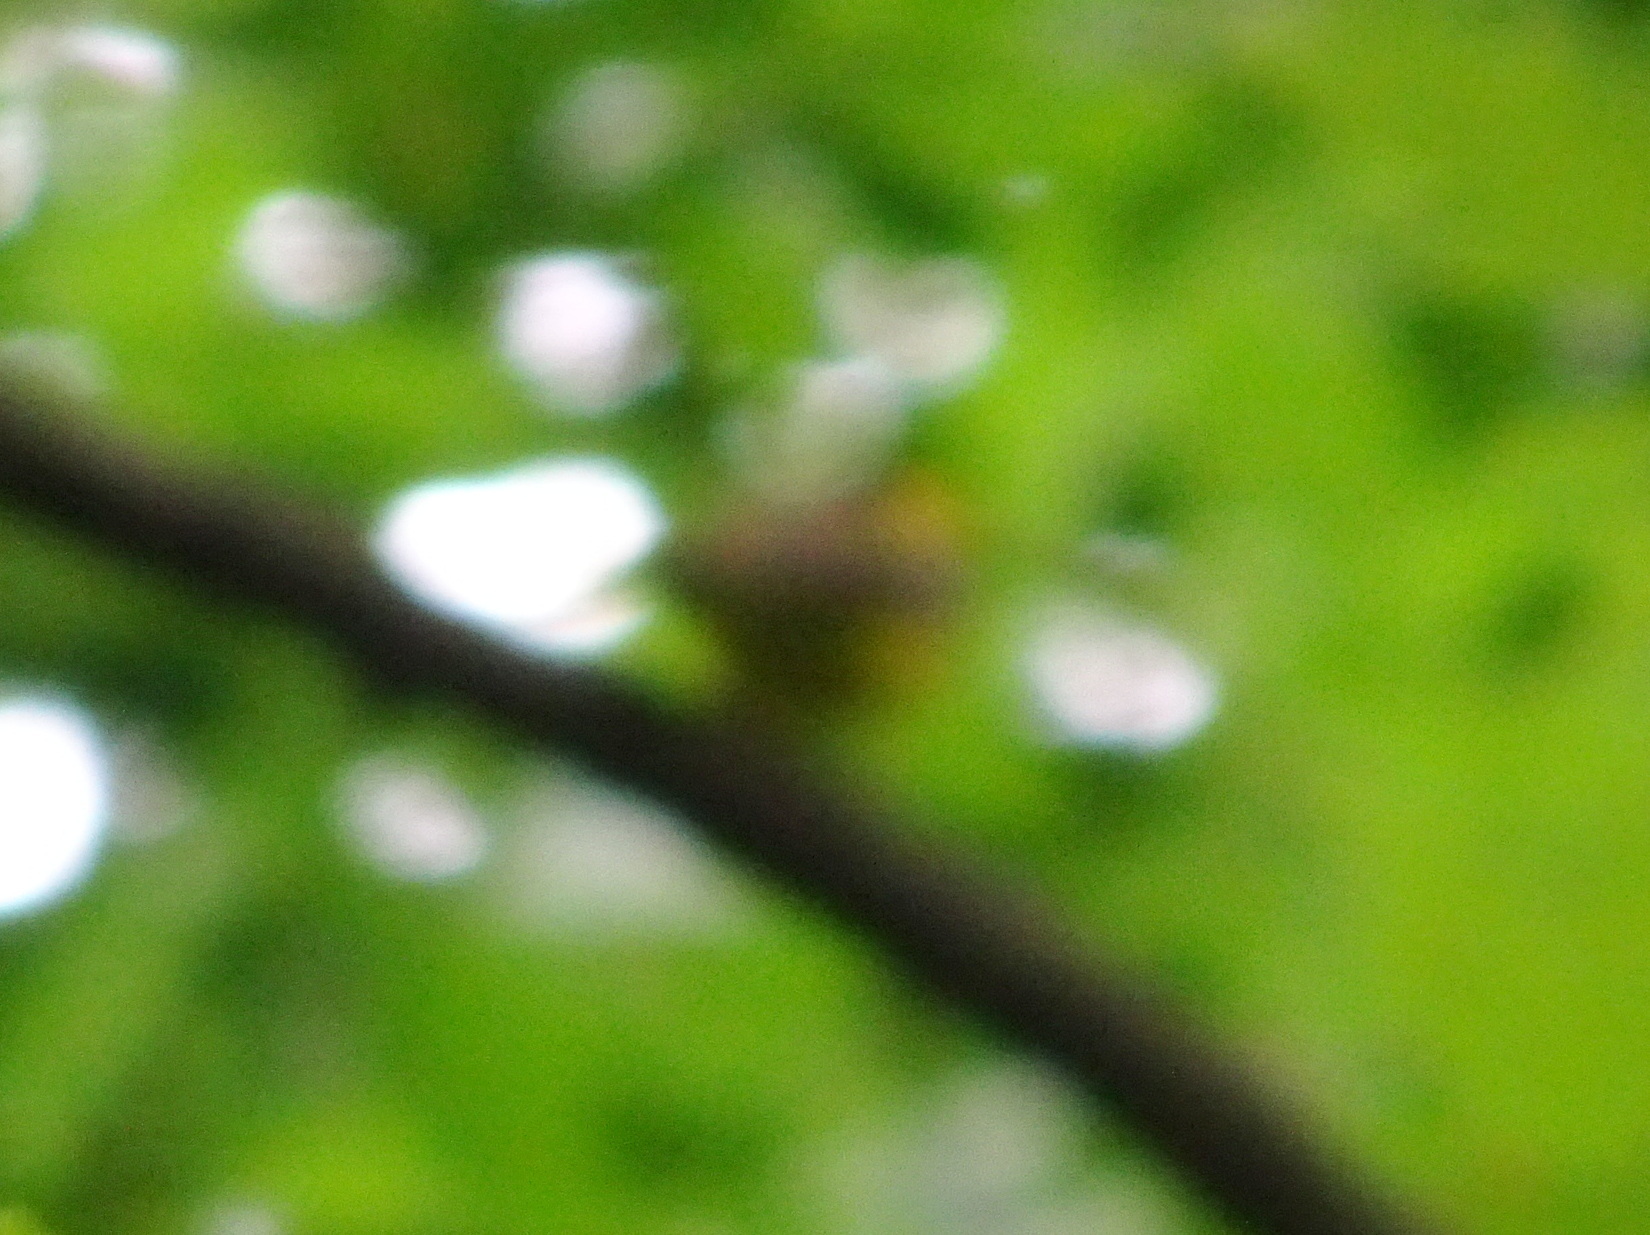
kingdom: Animalia
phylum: Chordata
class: Aves
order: Passeriformes
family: Parulidae
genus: Setophaga
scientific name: Setophaga citrina
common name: Hooded warbler
